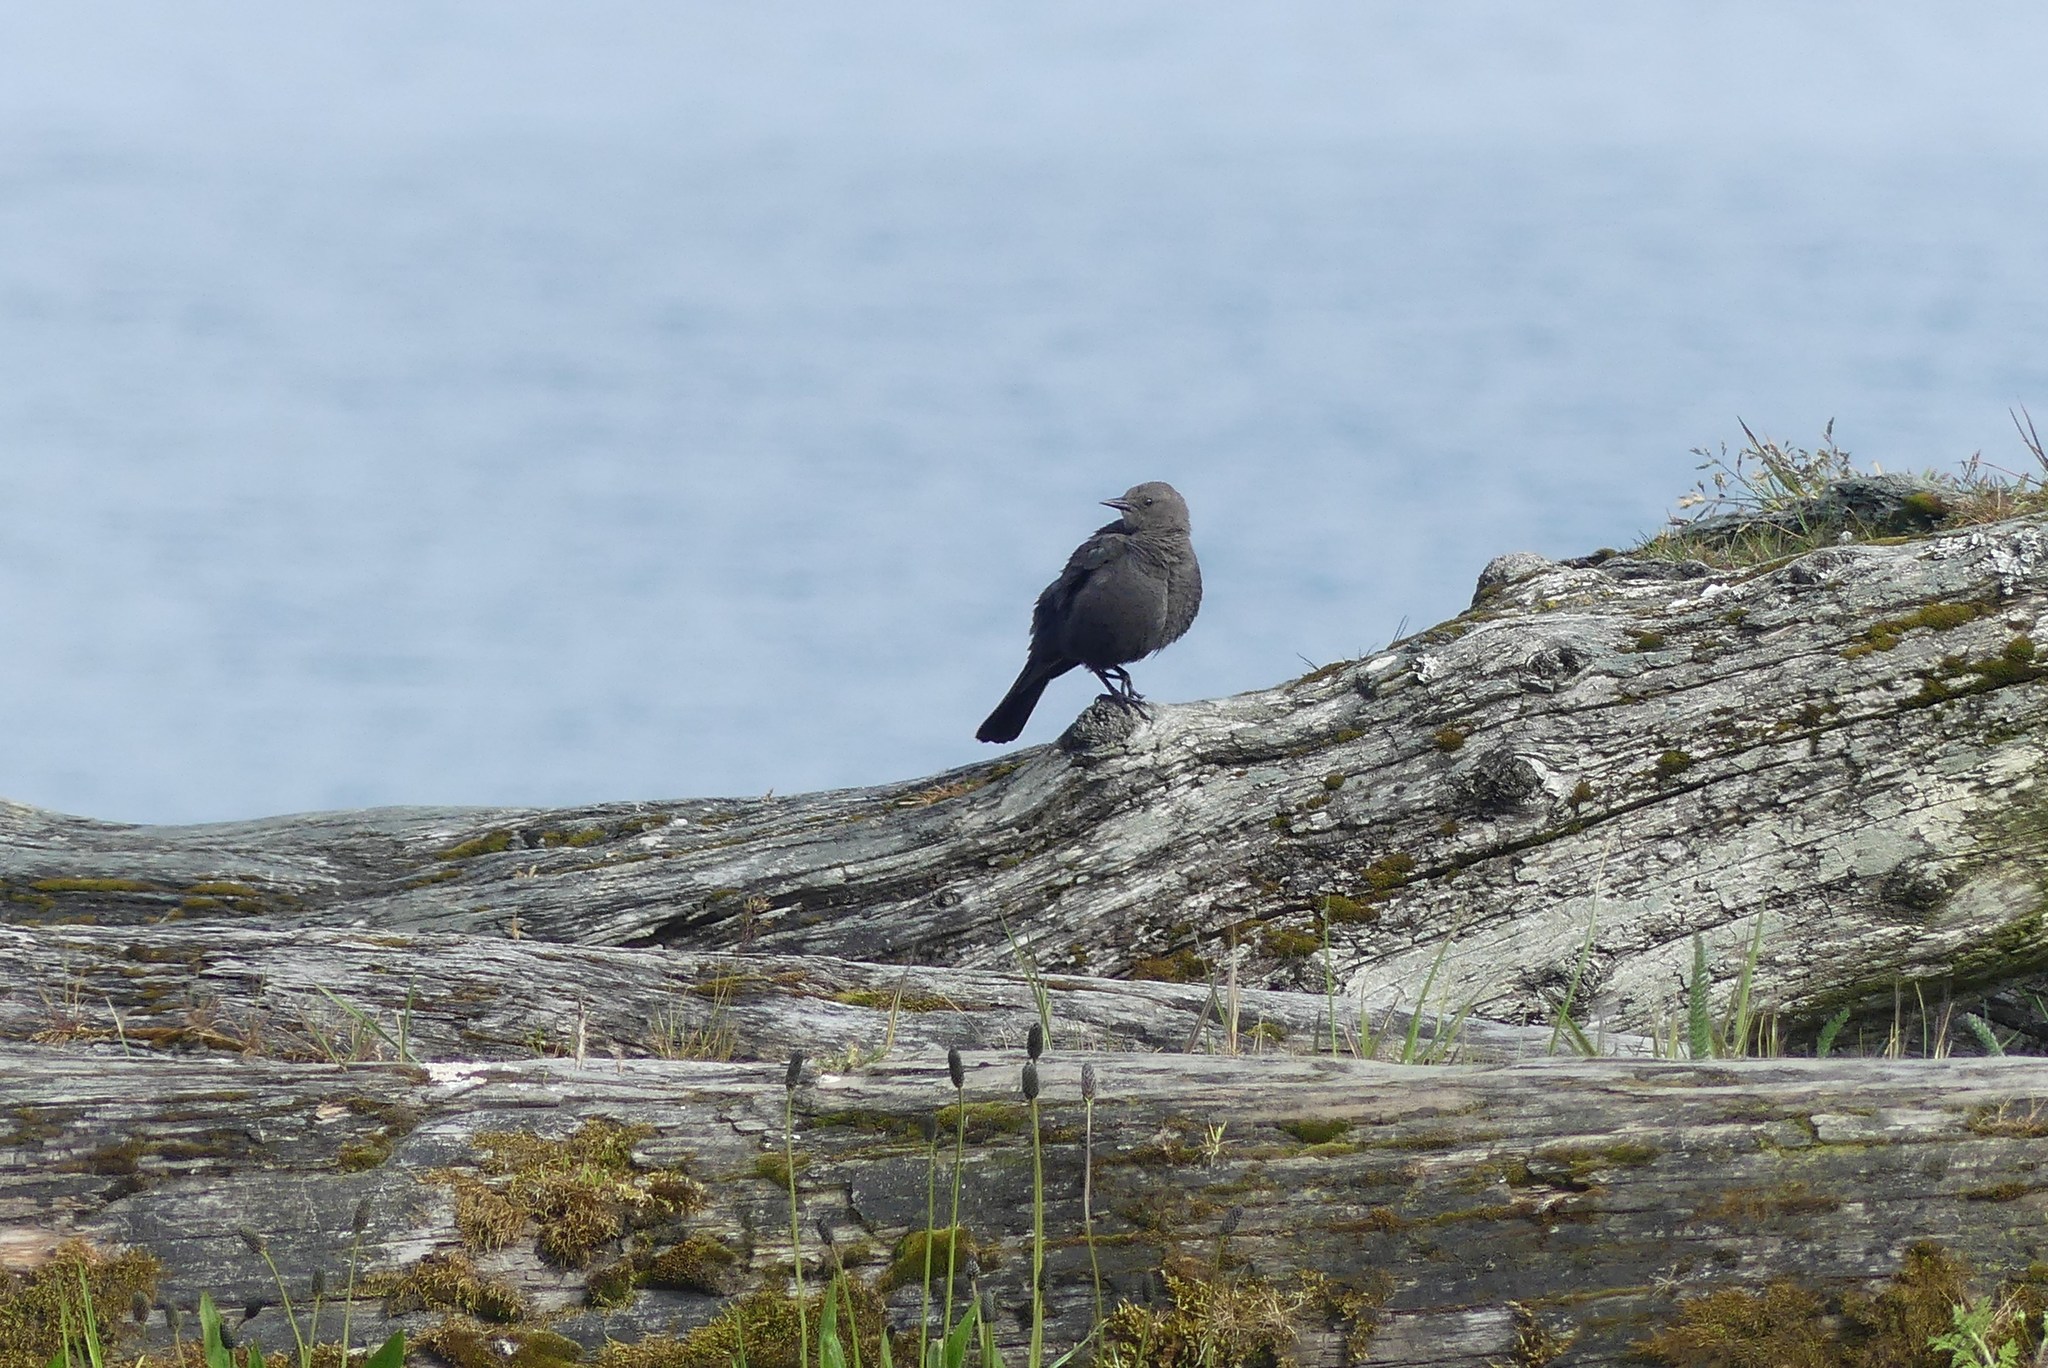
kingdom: Animalia
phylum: Chordata
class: Aves
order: Passeriformes
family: Icteridae
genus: Euphagus
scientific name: Euphagus cyanocephalus
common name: Brewer's blackbird
